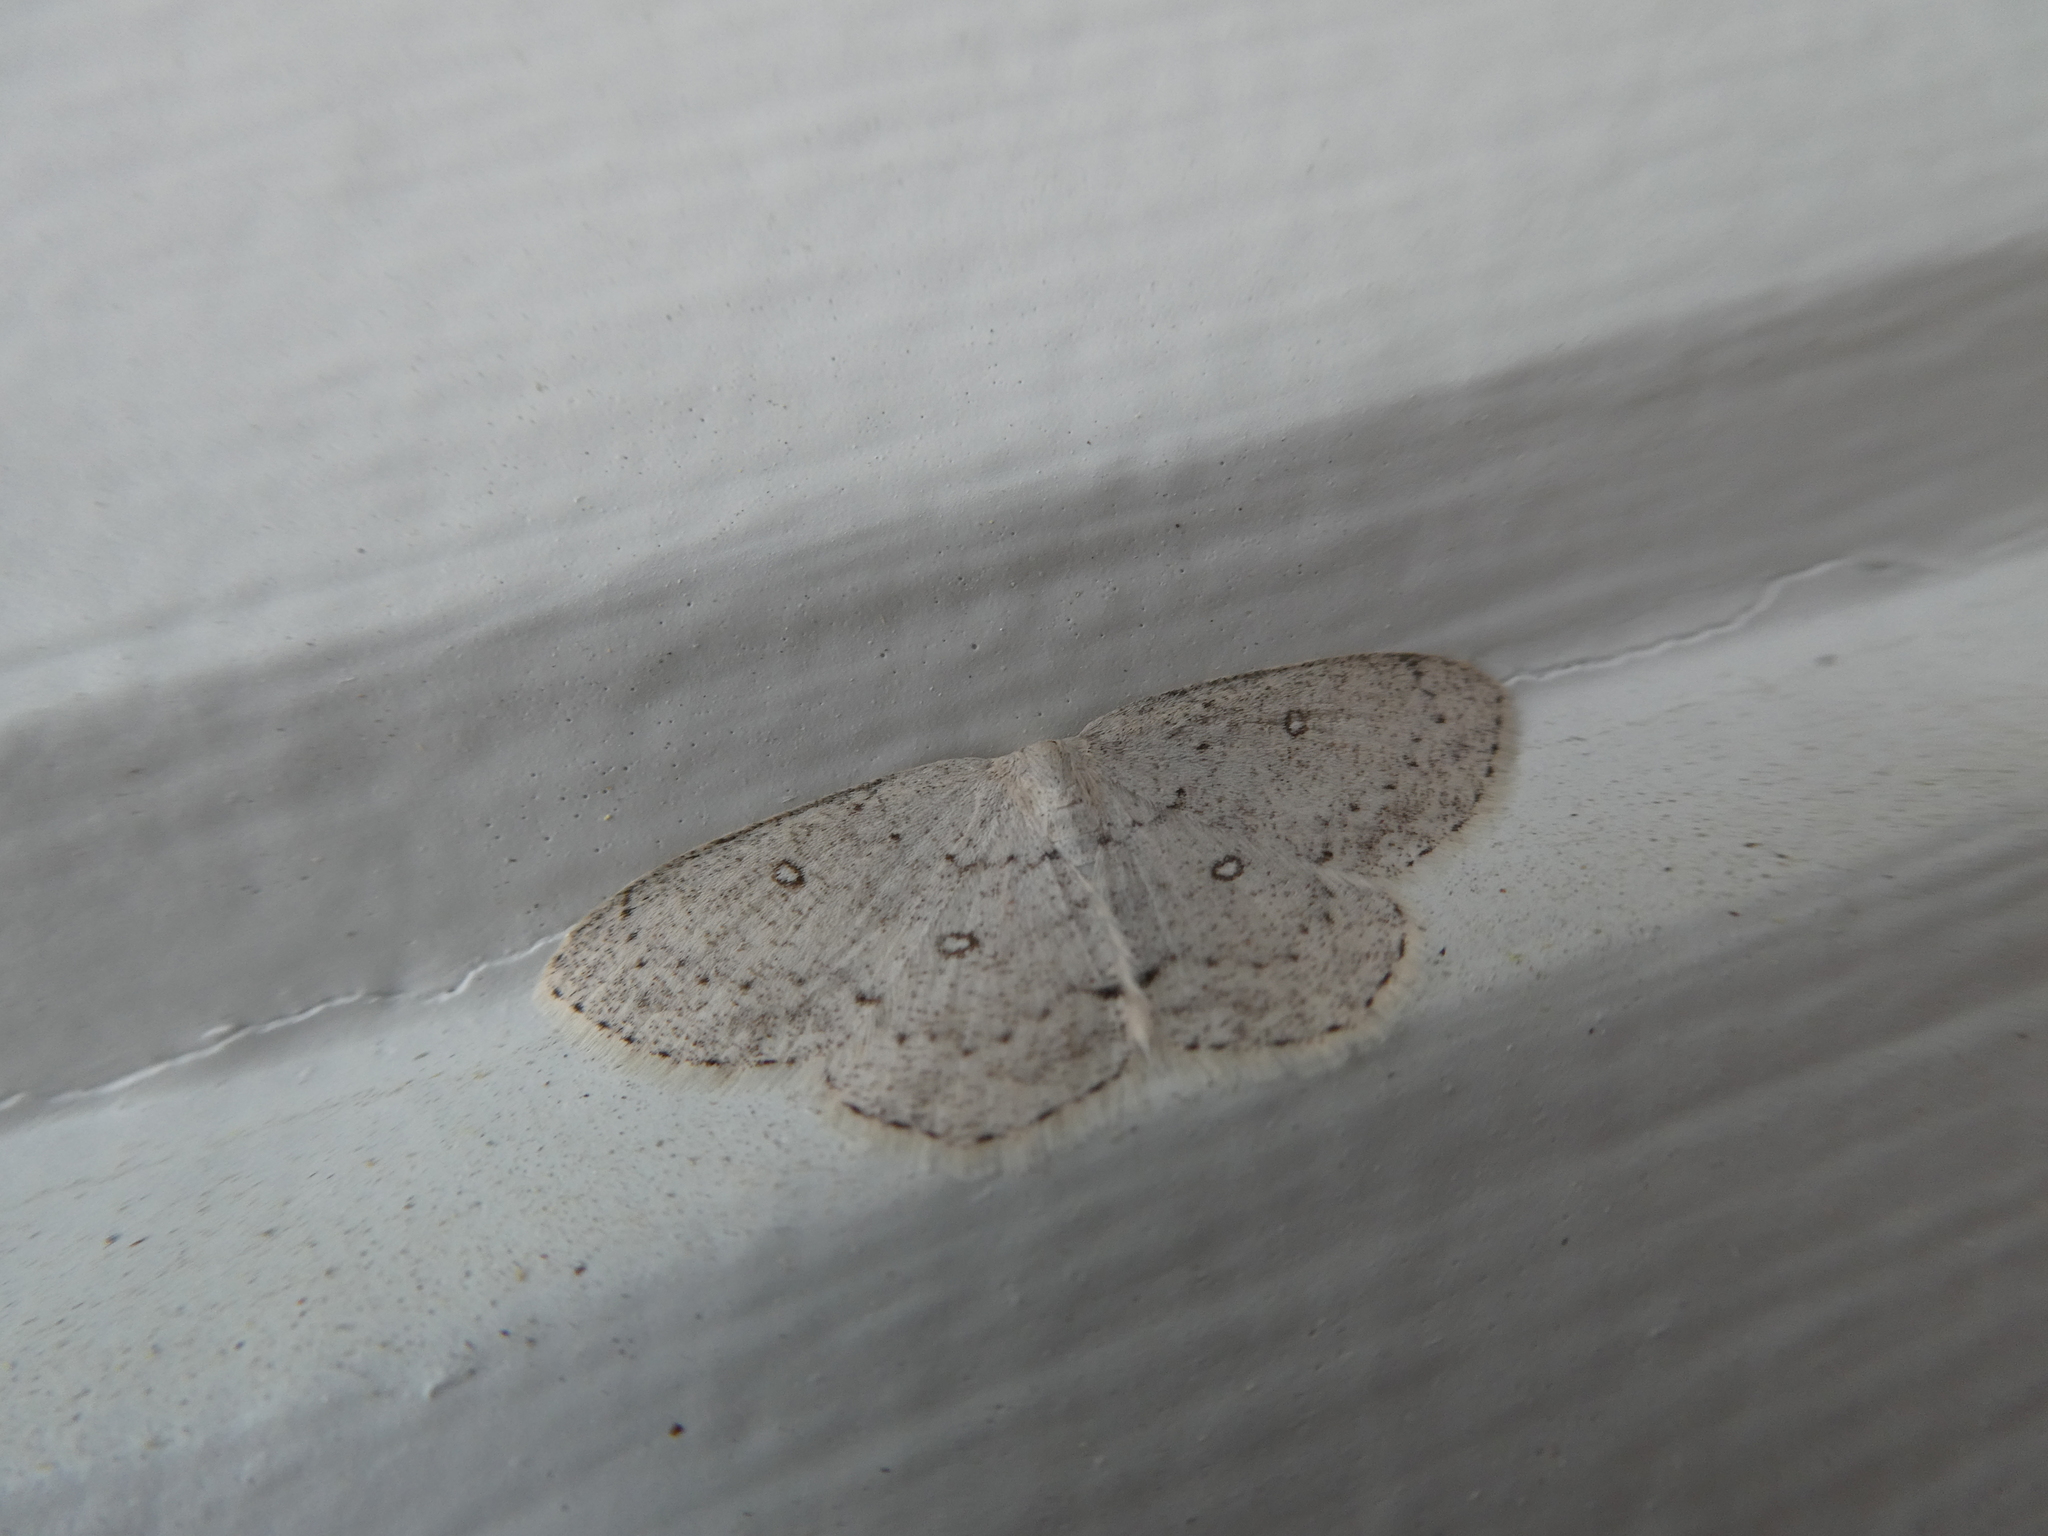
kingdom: Animalia
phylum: Arthropoda
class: Insecta
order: Lepidoptera
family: Geometridae
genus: Cyclophora
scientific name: Cyclophora pendulinaria
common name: Sweet fern geometer
